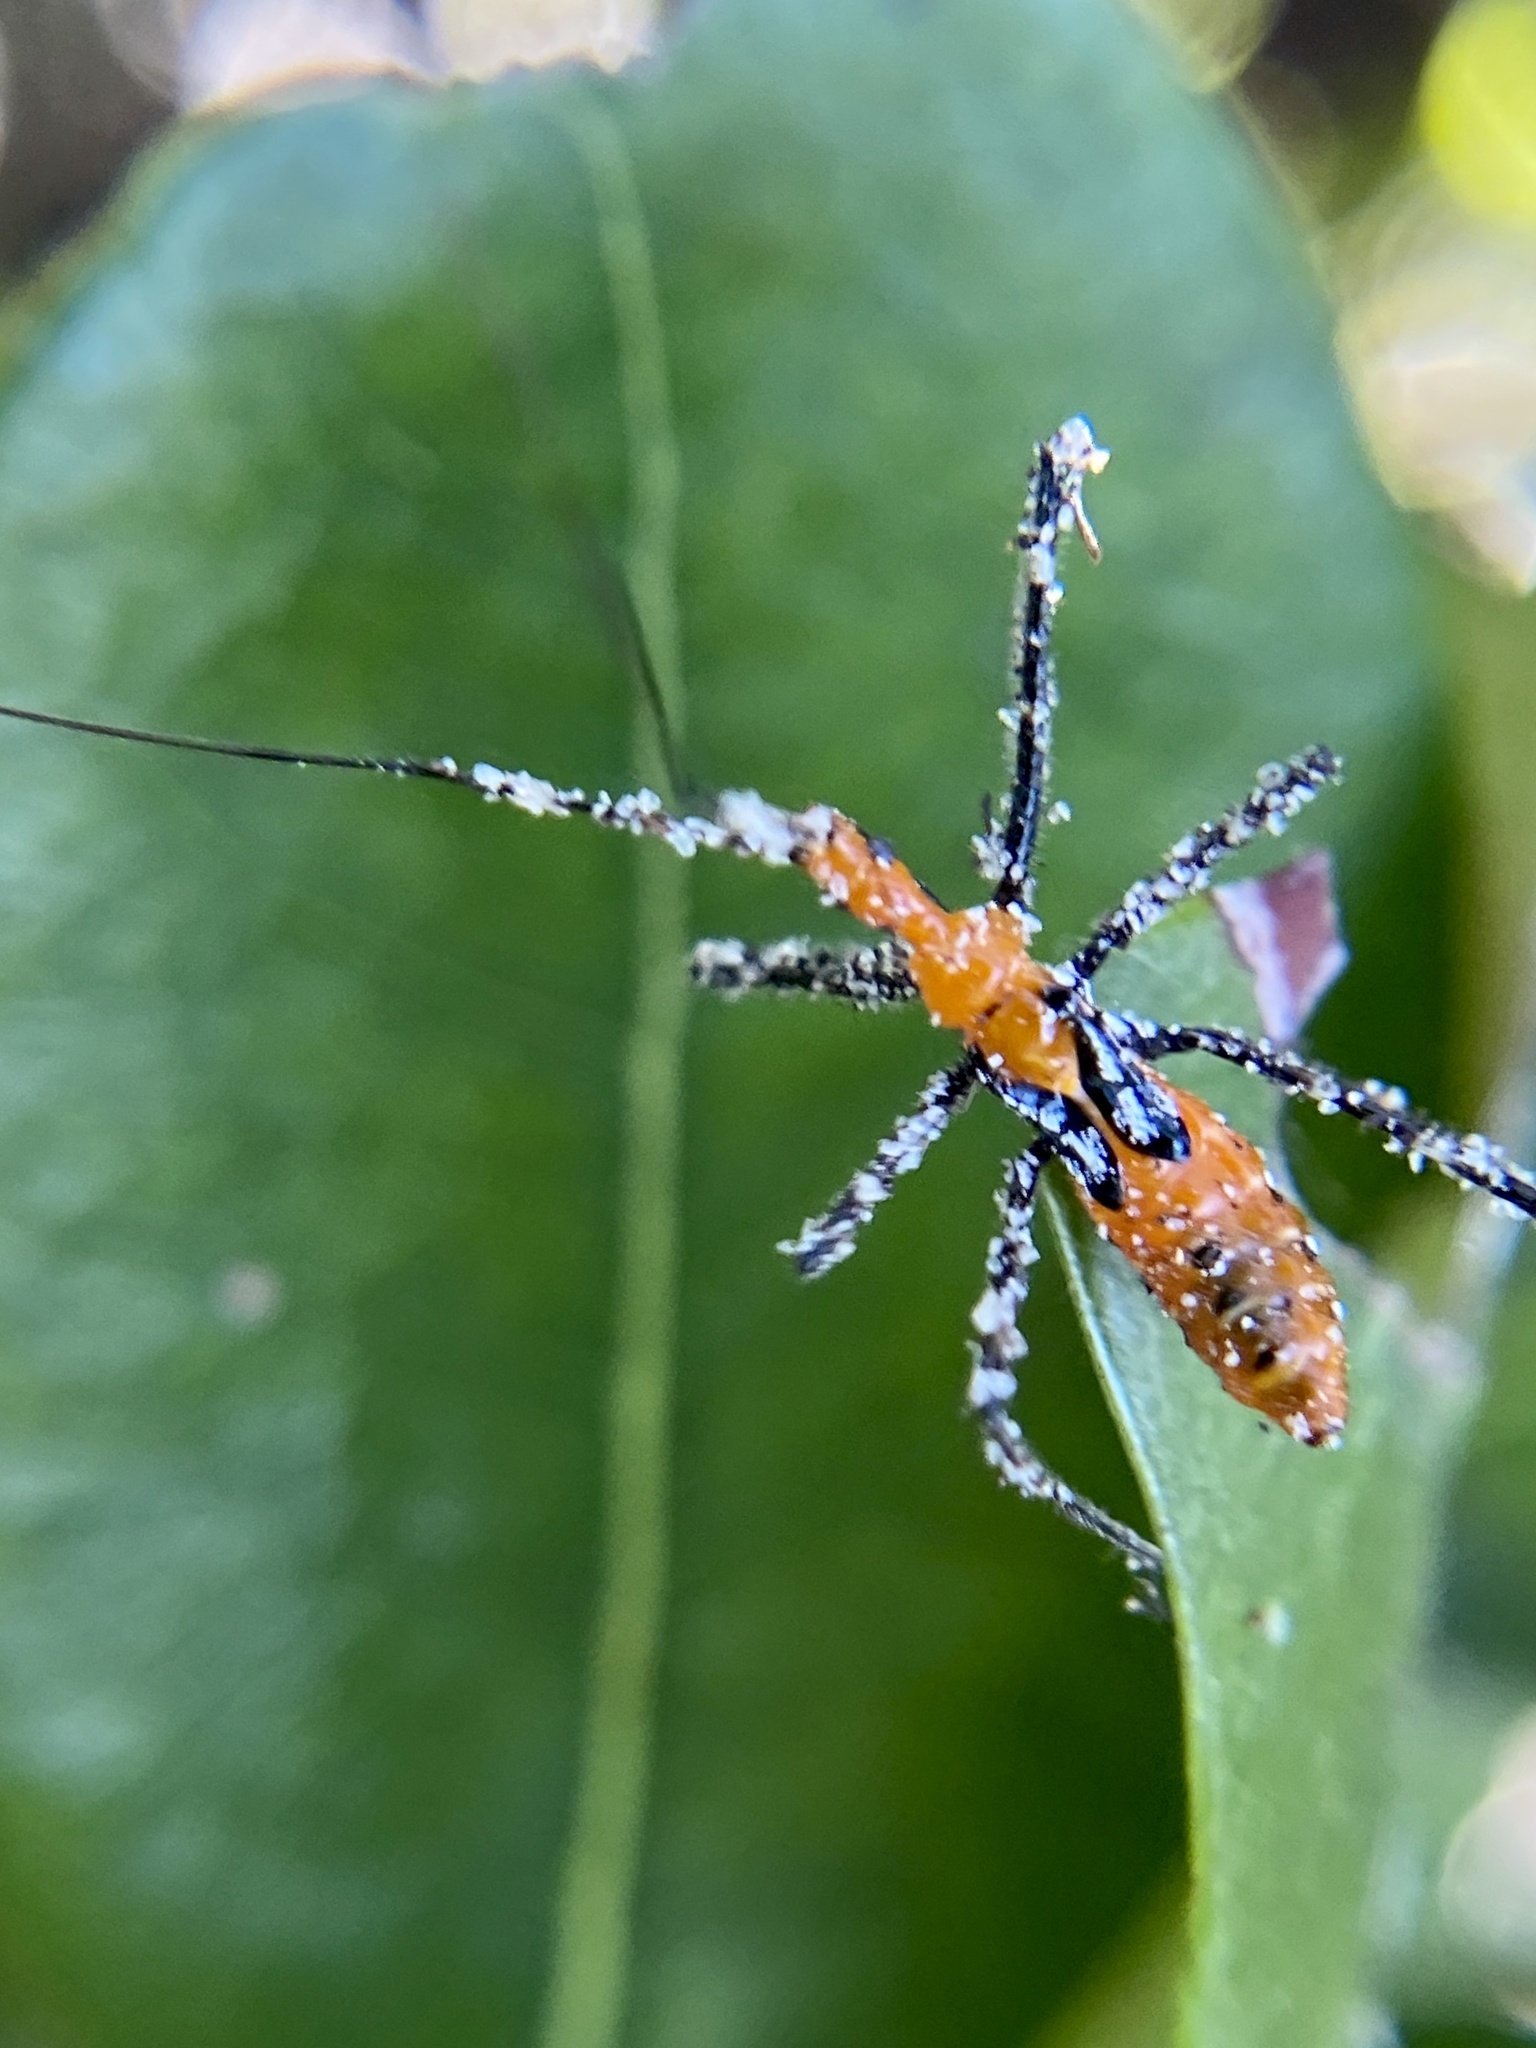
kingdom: Animalia
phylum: Arthropoda
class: Insecta
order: Hemiptera
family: Reduviidae
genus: Zelus
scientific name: Zelus longipes
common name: Milkweed assassin bug
